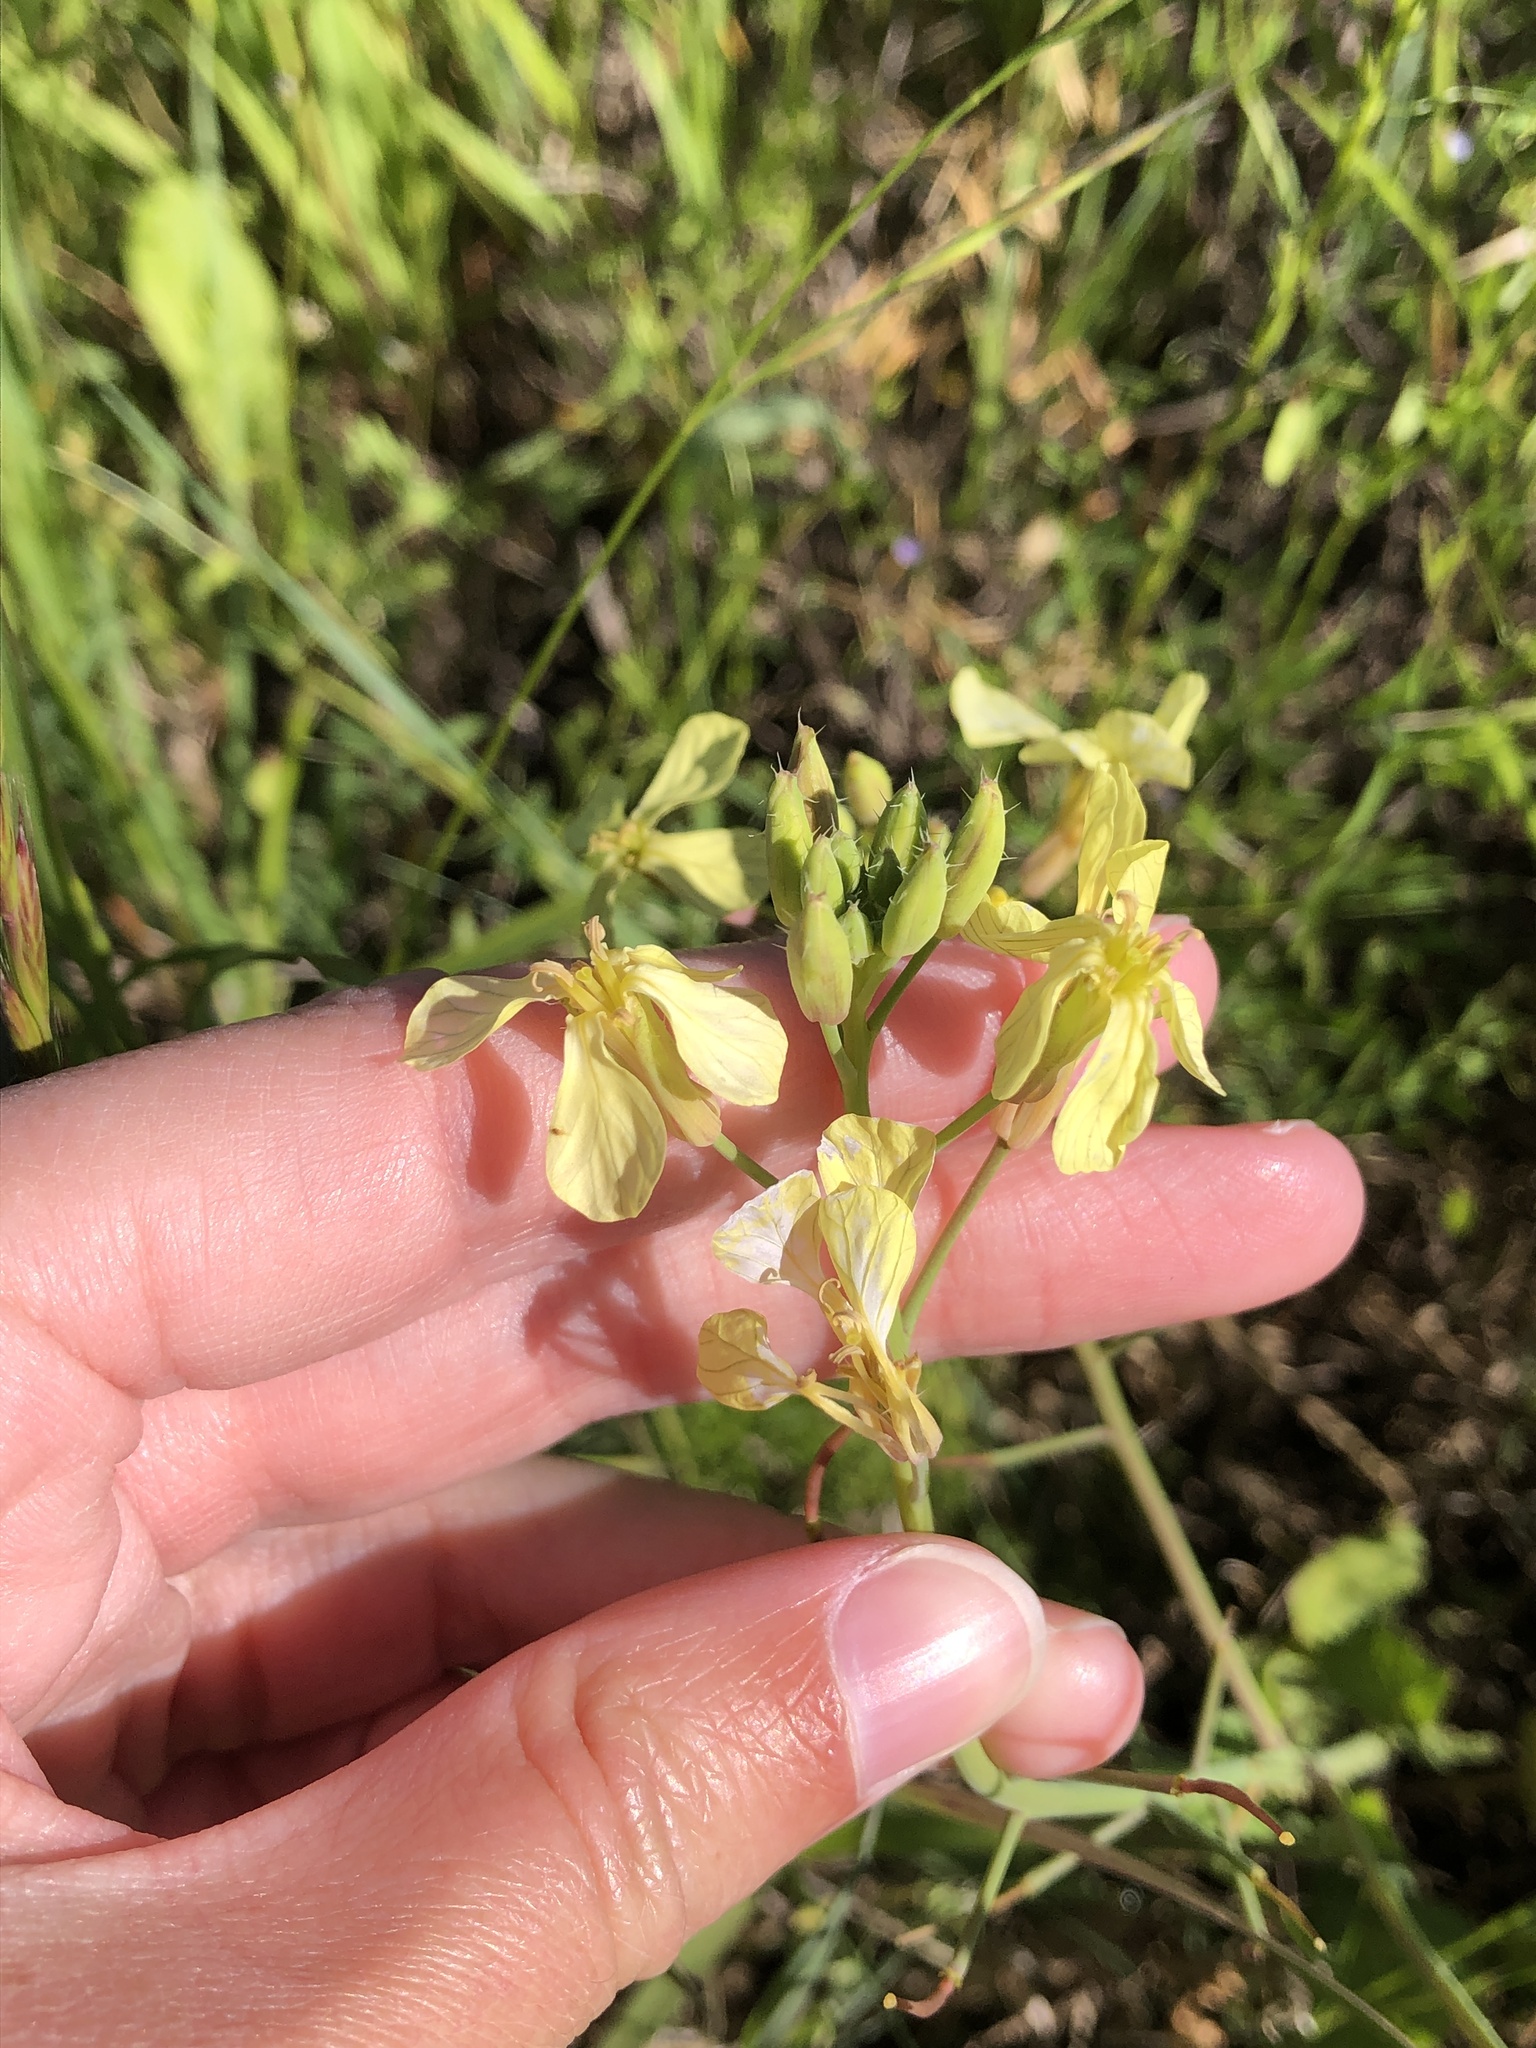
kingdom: Plantae
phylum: Tracheophyta
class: Magnoliopsida
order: Brassicales
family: Brassicaceae
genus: Raphanus
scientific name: Raphanus raphanistrum
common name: Wild radish
